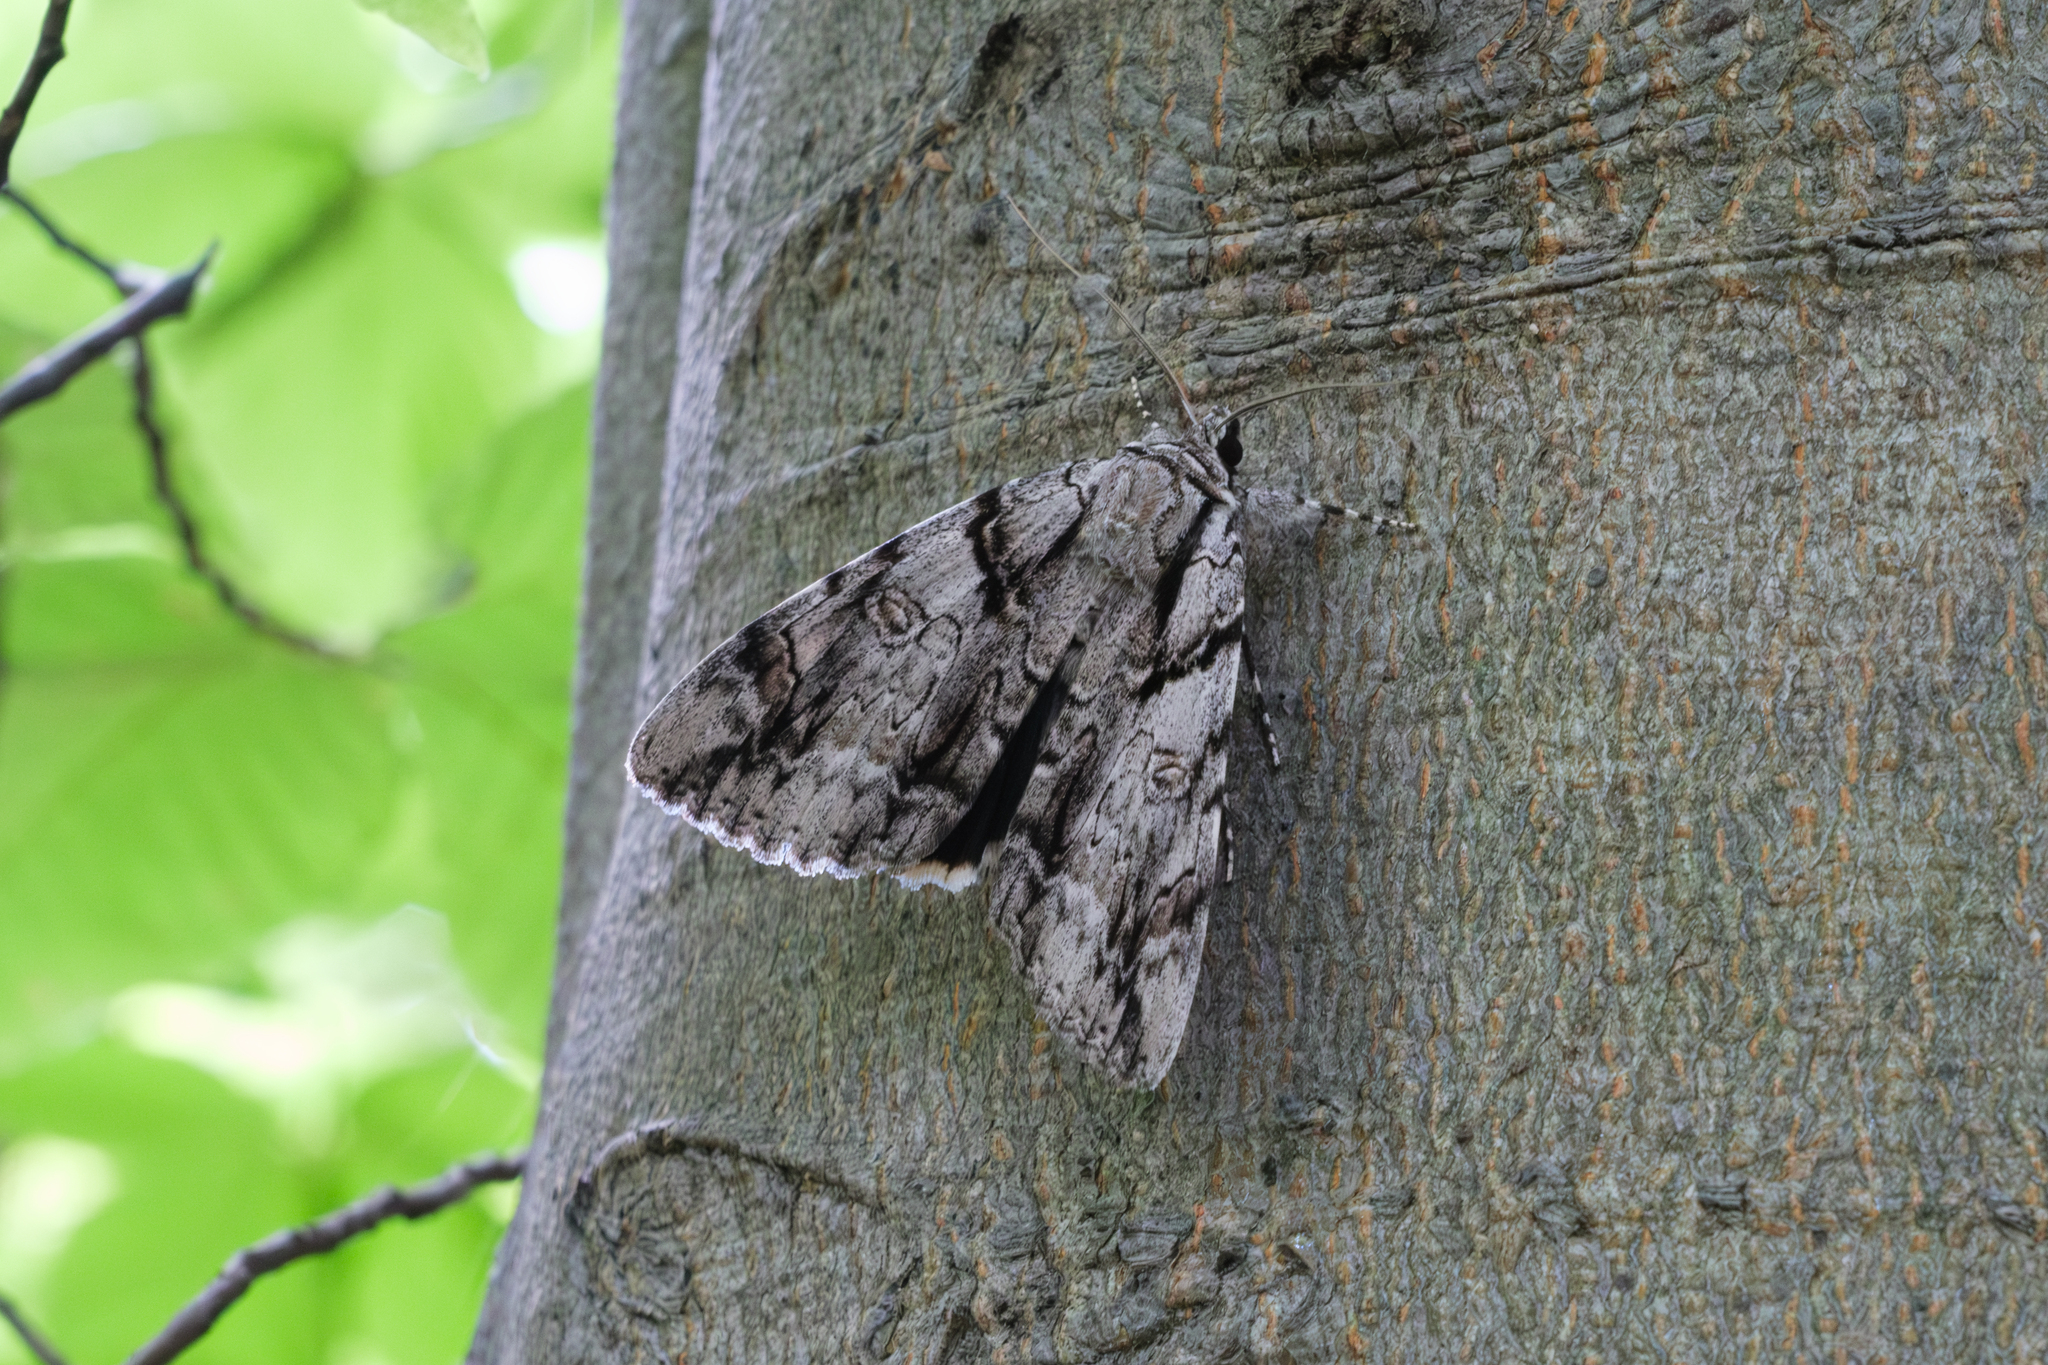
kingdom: Animalia
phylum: Arthropoda
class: Insecta
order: Lepidoptera
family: Erebidae
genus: Catocala
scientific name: Catocala vidua
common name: The widow
